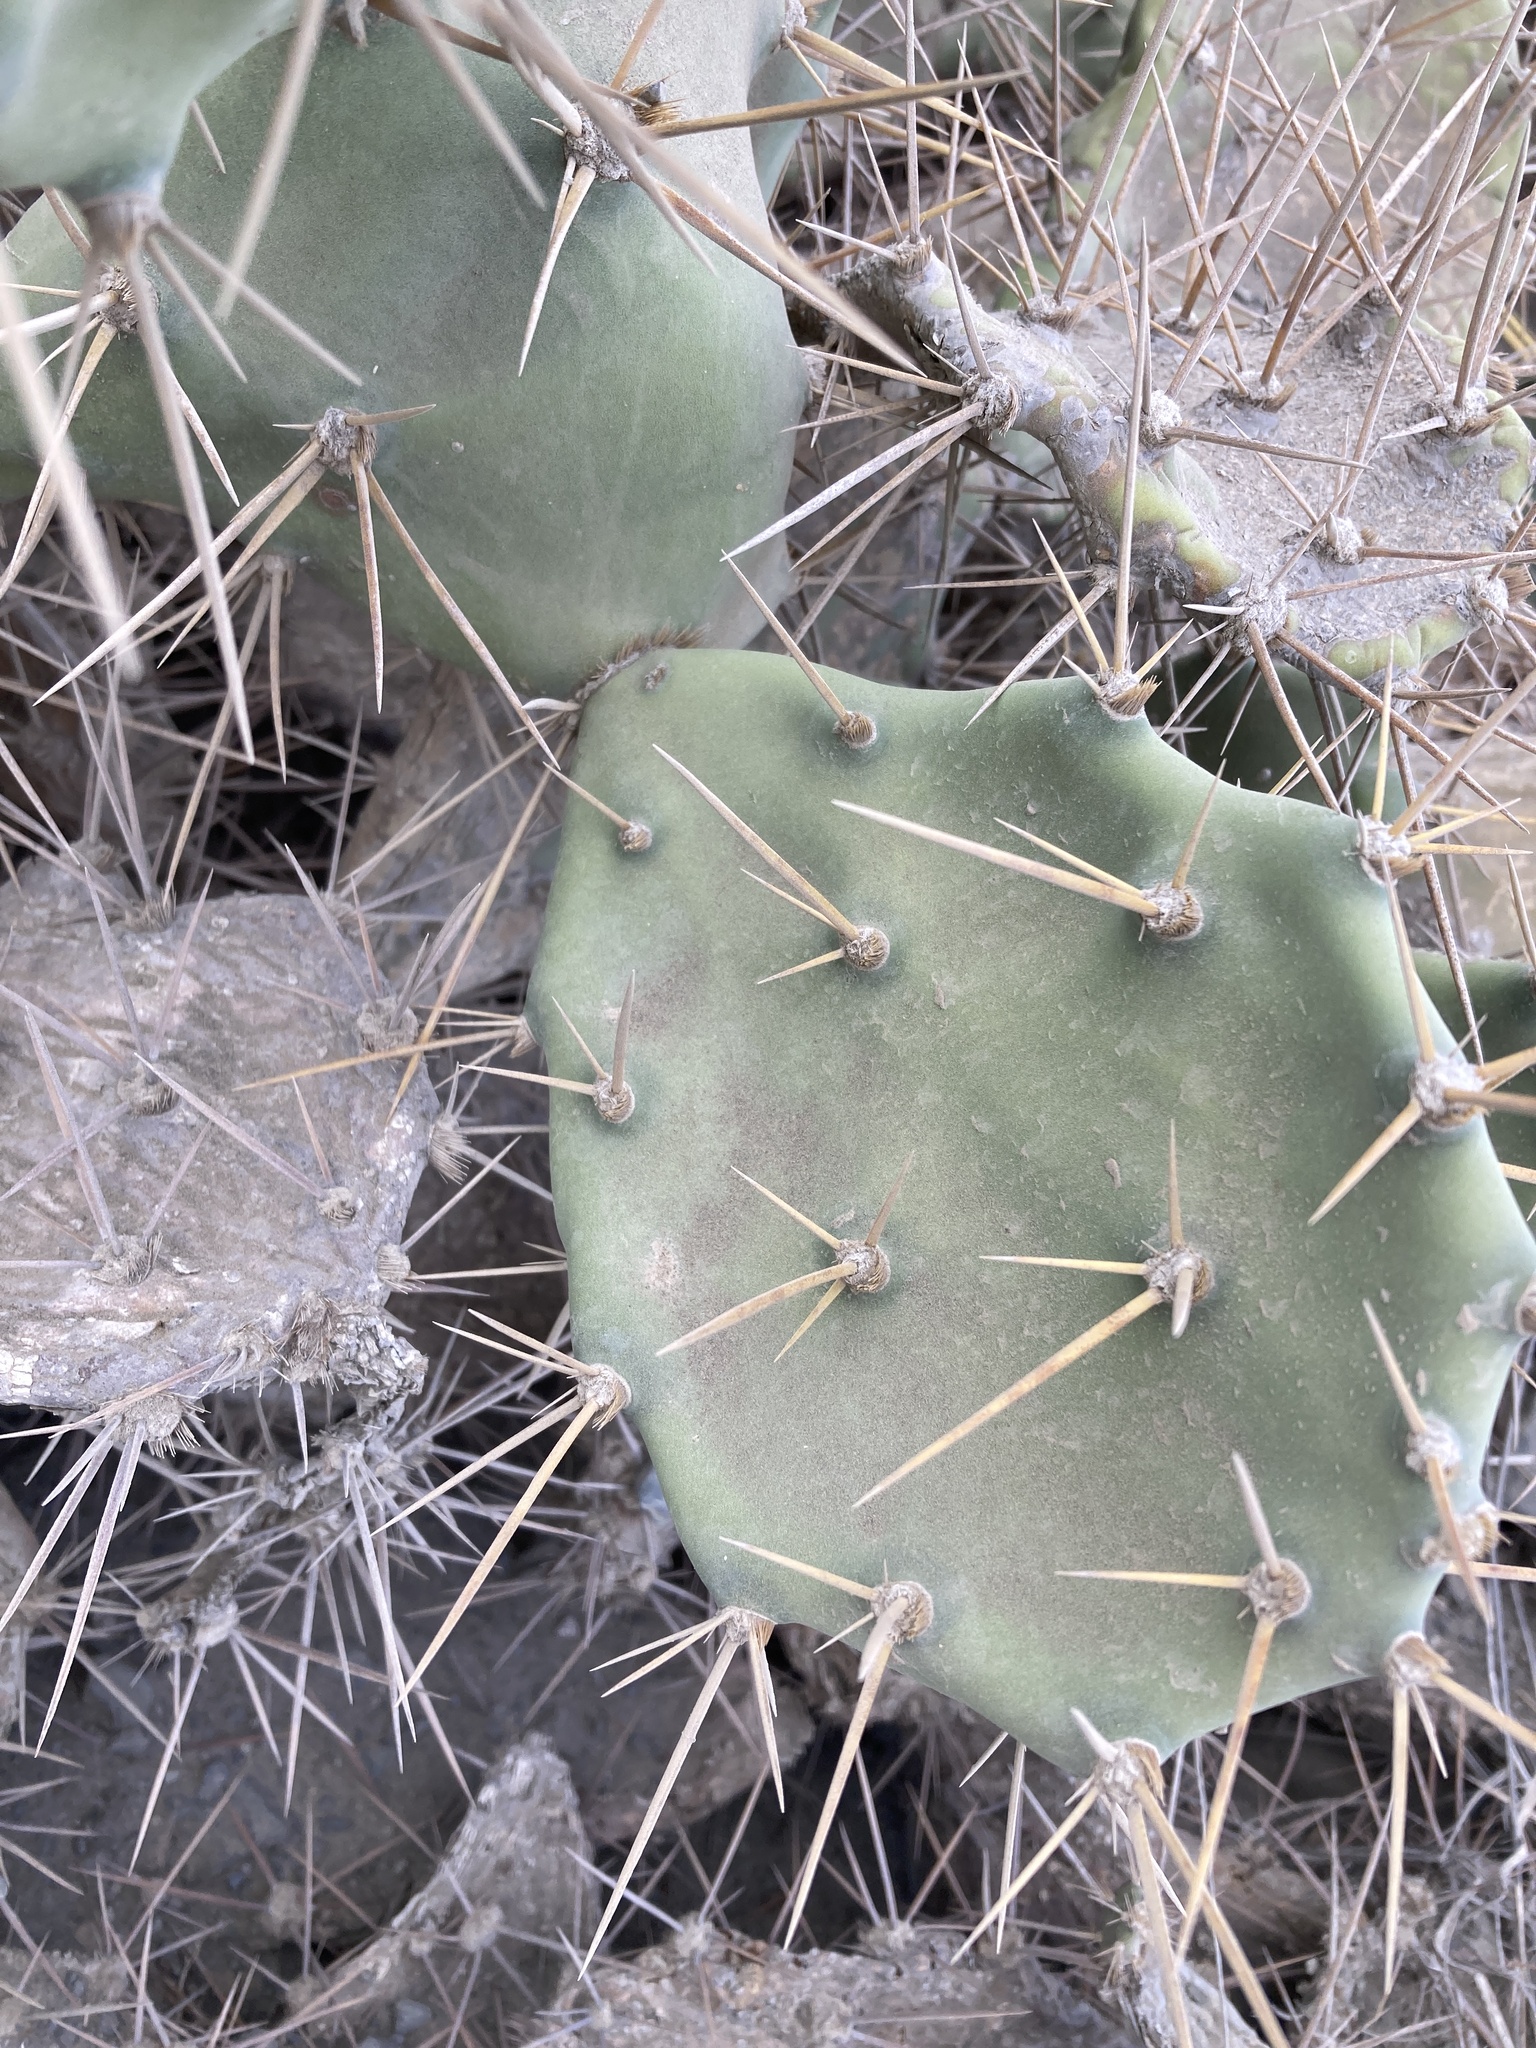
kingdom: Plantae
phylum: Tracheophyta
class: Magnoliopsida
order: Caryophyllales
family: Cactaceae
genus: Opuntia
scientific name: Opuntia stricta
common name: Erect pricklypear
